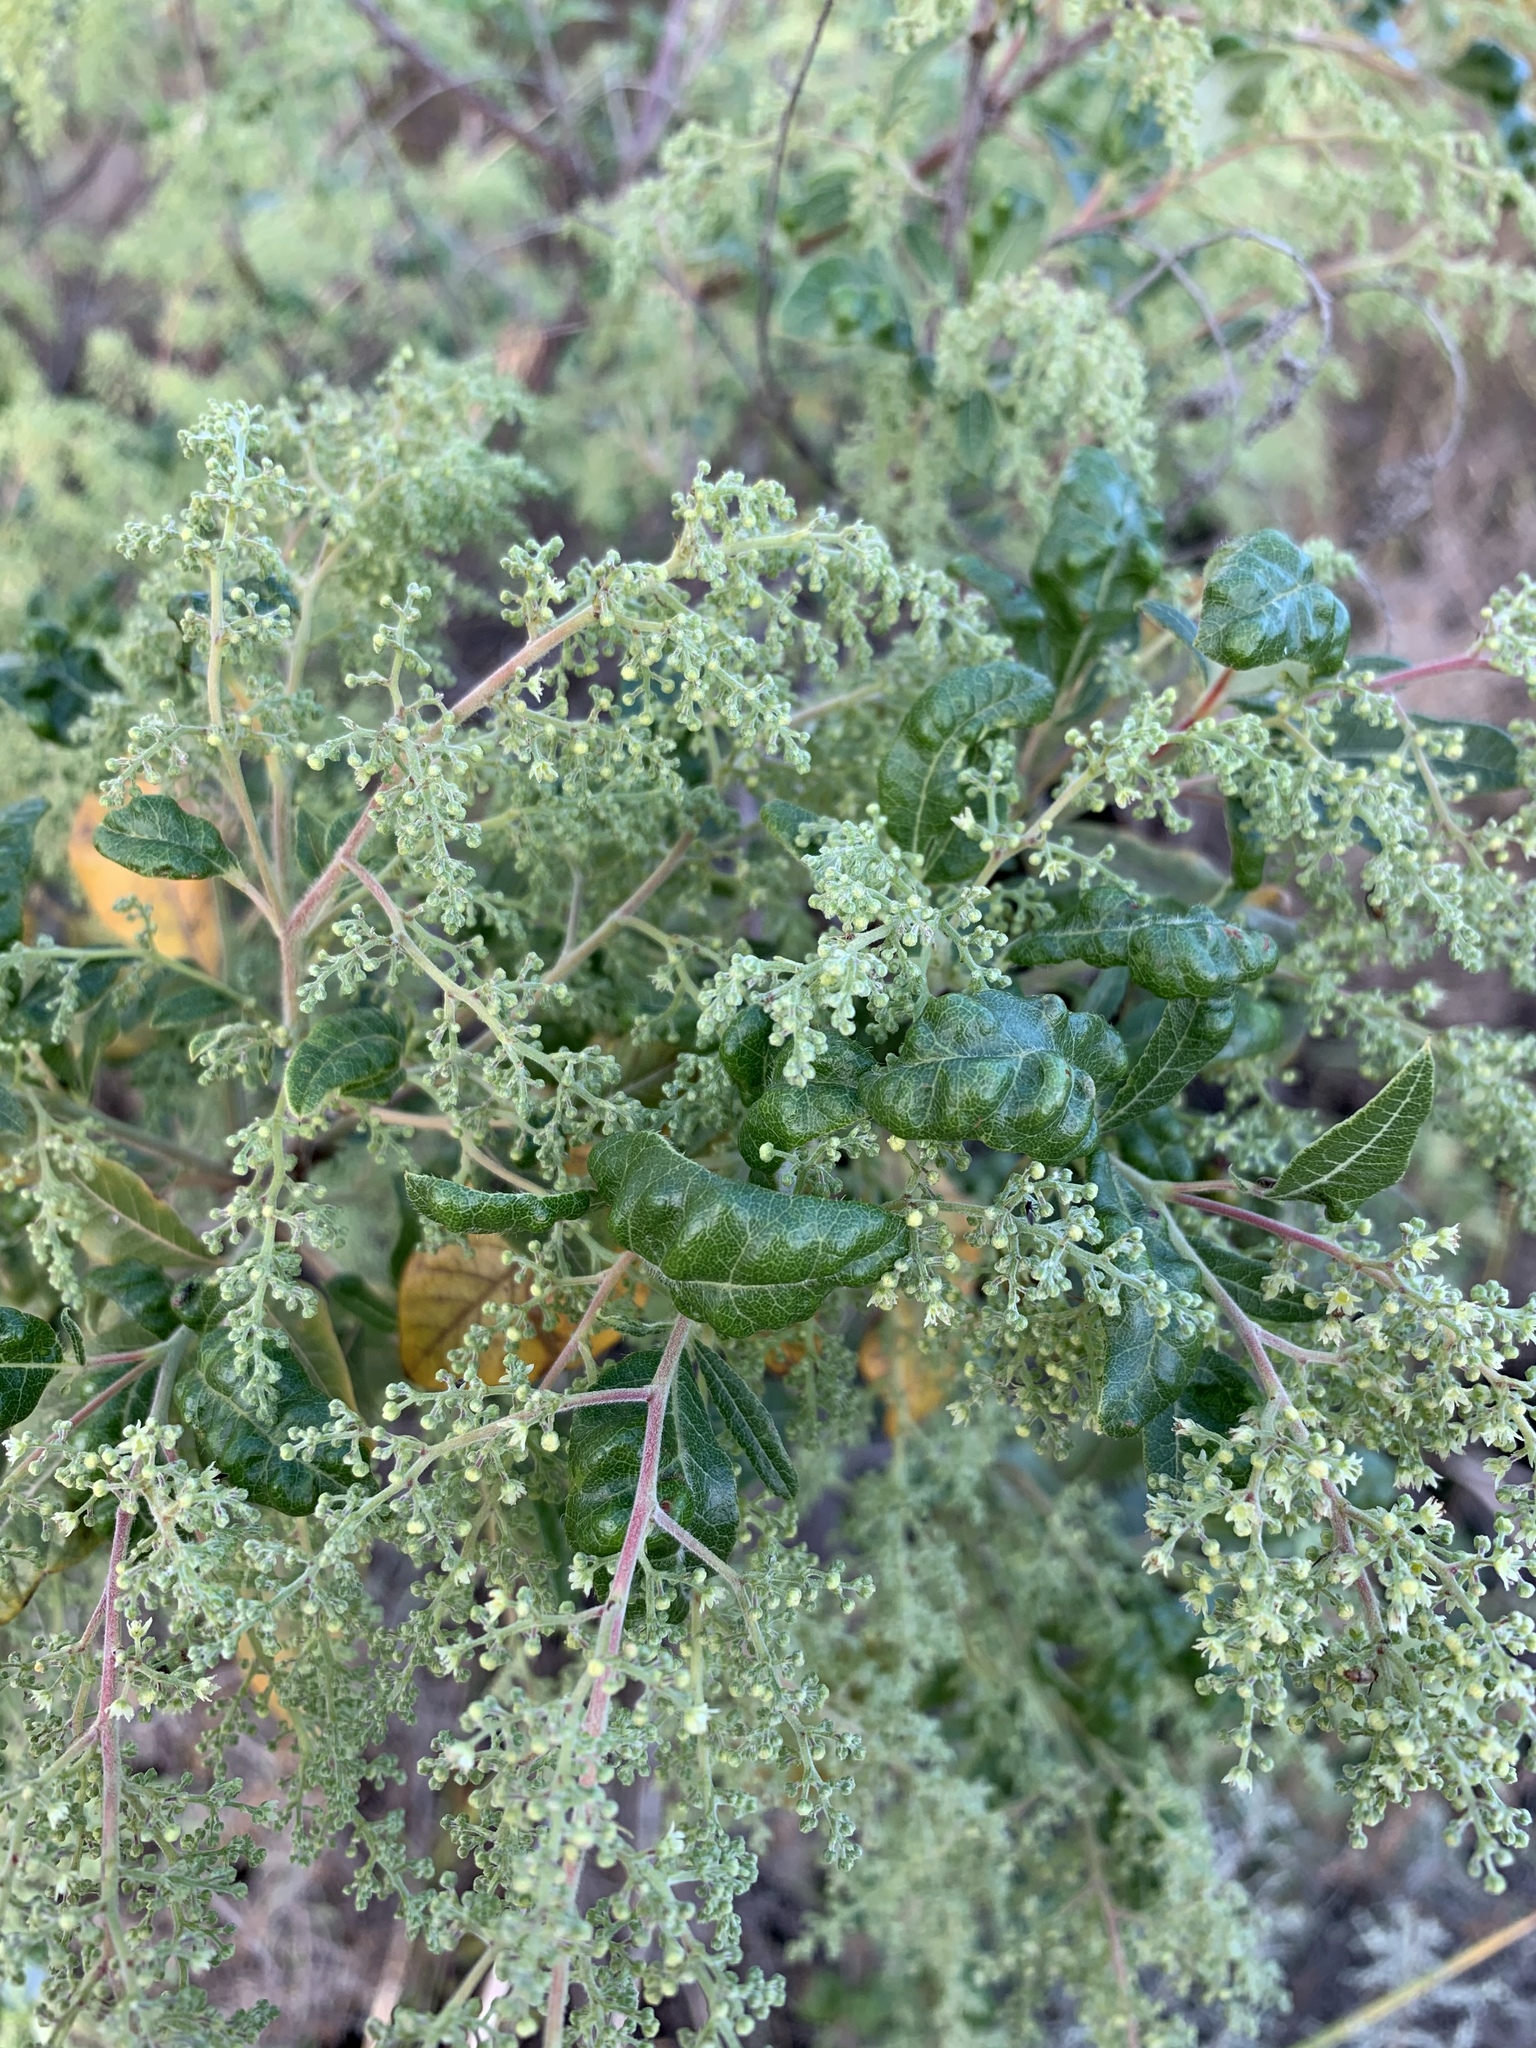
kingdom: Plantae
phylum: Tracheophyta
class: Magnoliopsida
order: Sapindales
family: Anacardiaceae
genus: Searsia
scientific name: Searsia tomentosa
